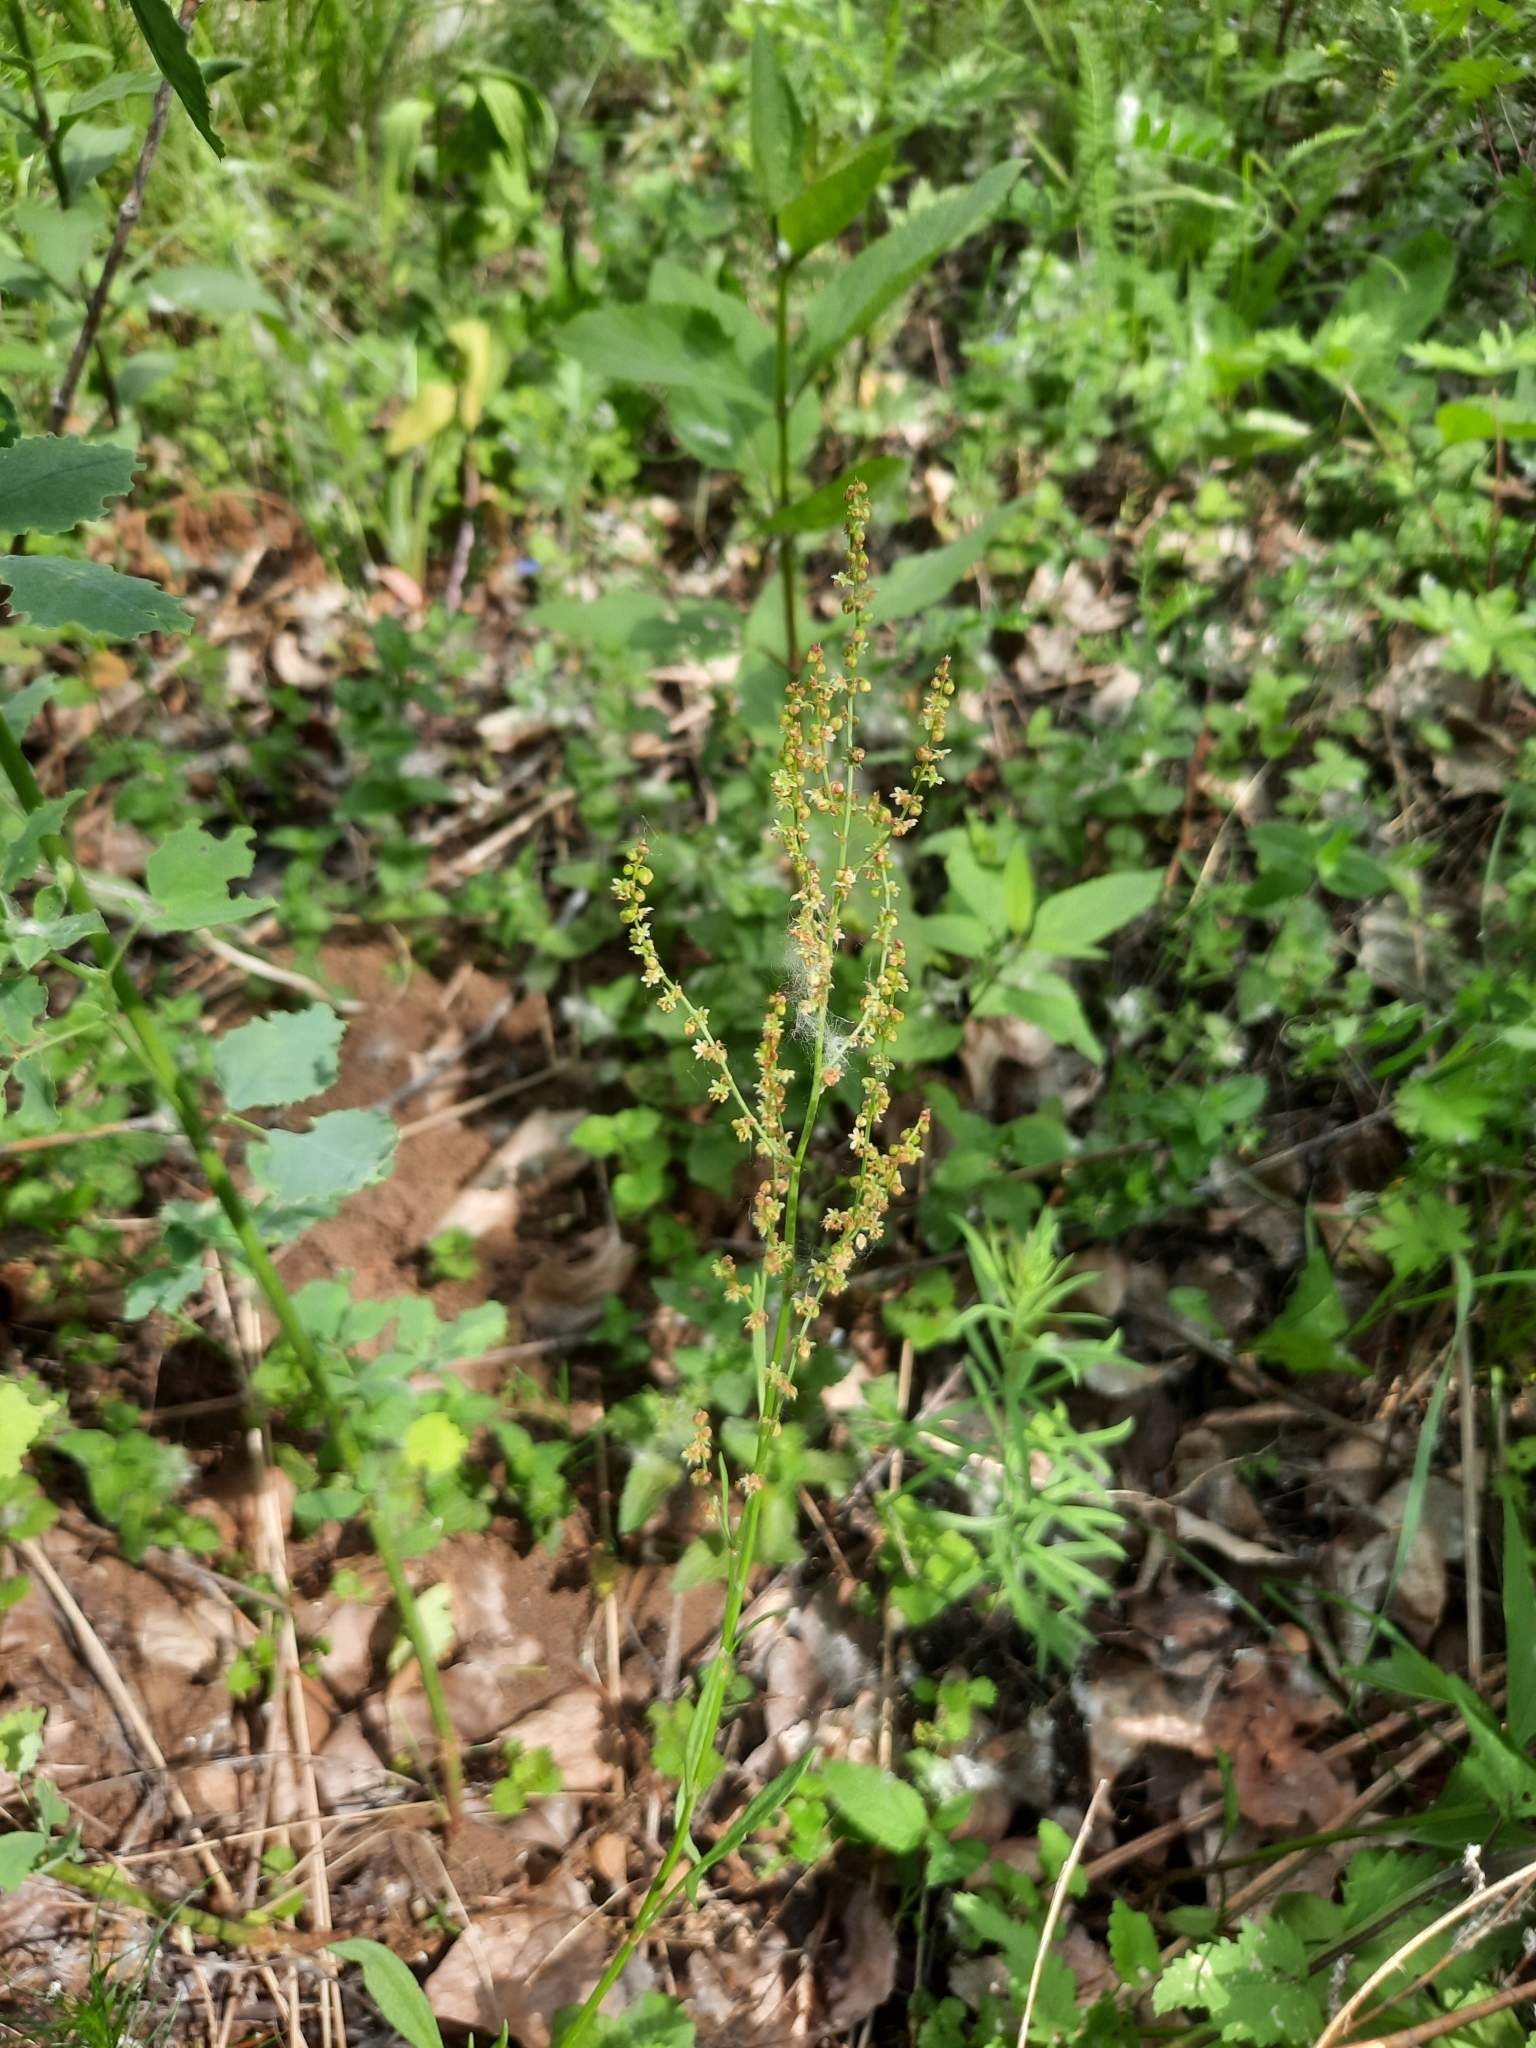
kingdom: Plantae
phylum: Tracheophyta
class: Magnoliopsida
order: Caryophyllales
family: Polygonaceae
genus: Rumex
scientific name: Rumex acetosella
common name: Common sheep sorrel
